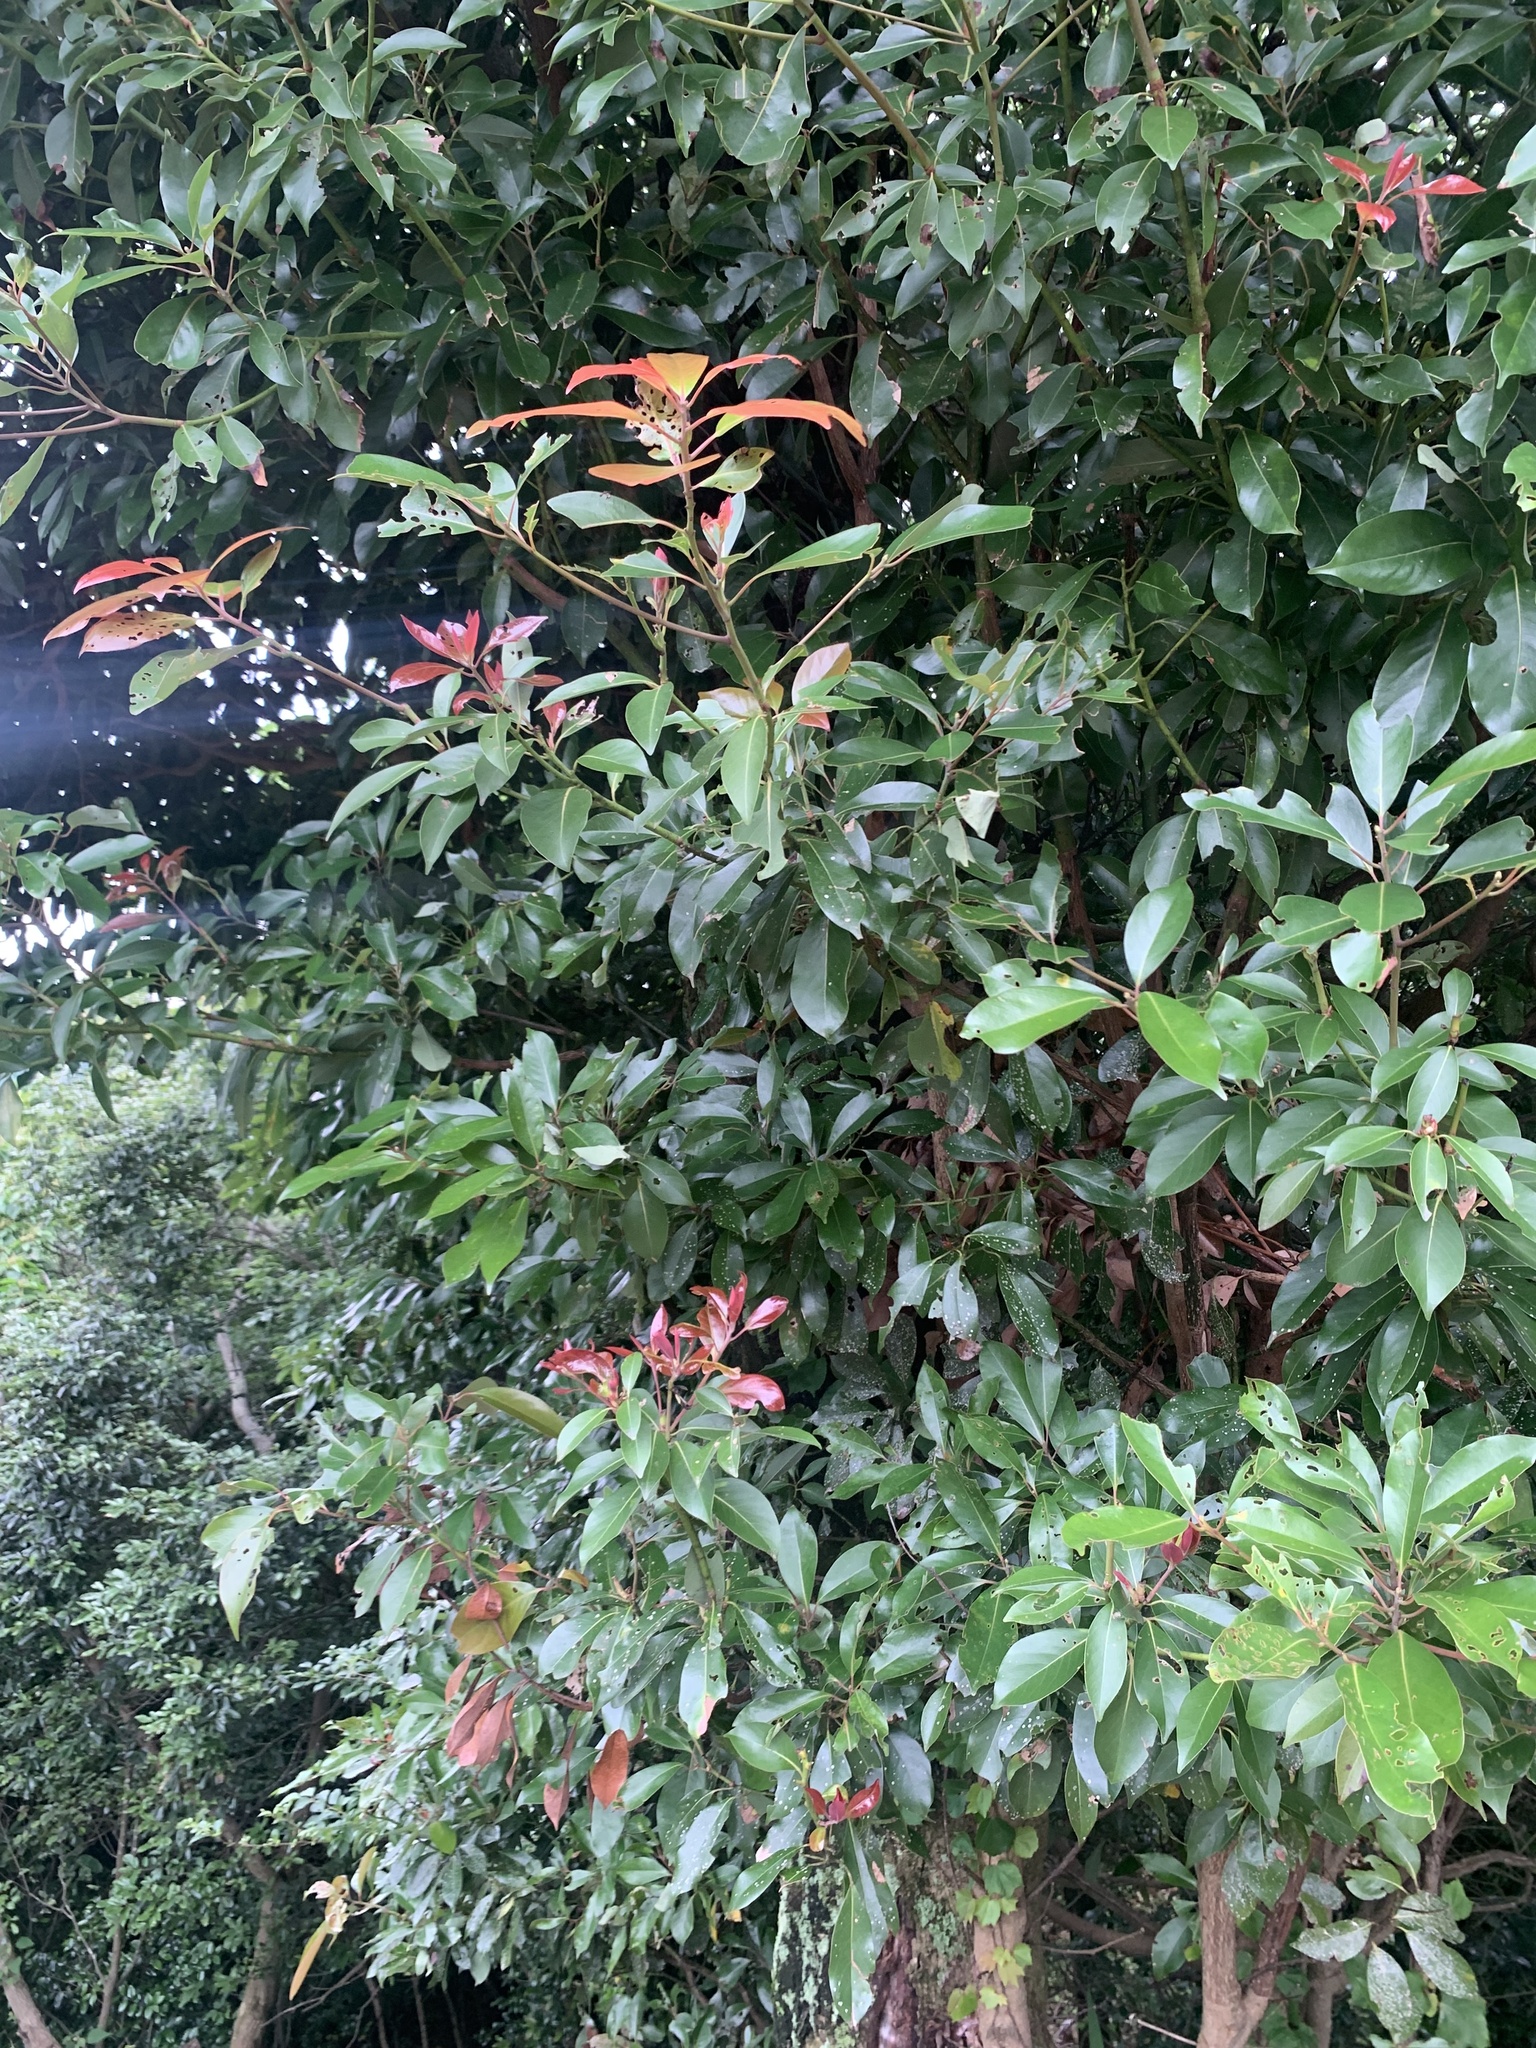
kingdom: Plantae
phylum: Tracheophyta
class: Magnoliopsida
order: Laurales
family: Lauraceae
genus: Machilus
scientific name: Machilus thunbergii
